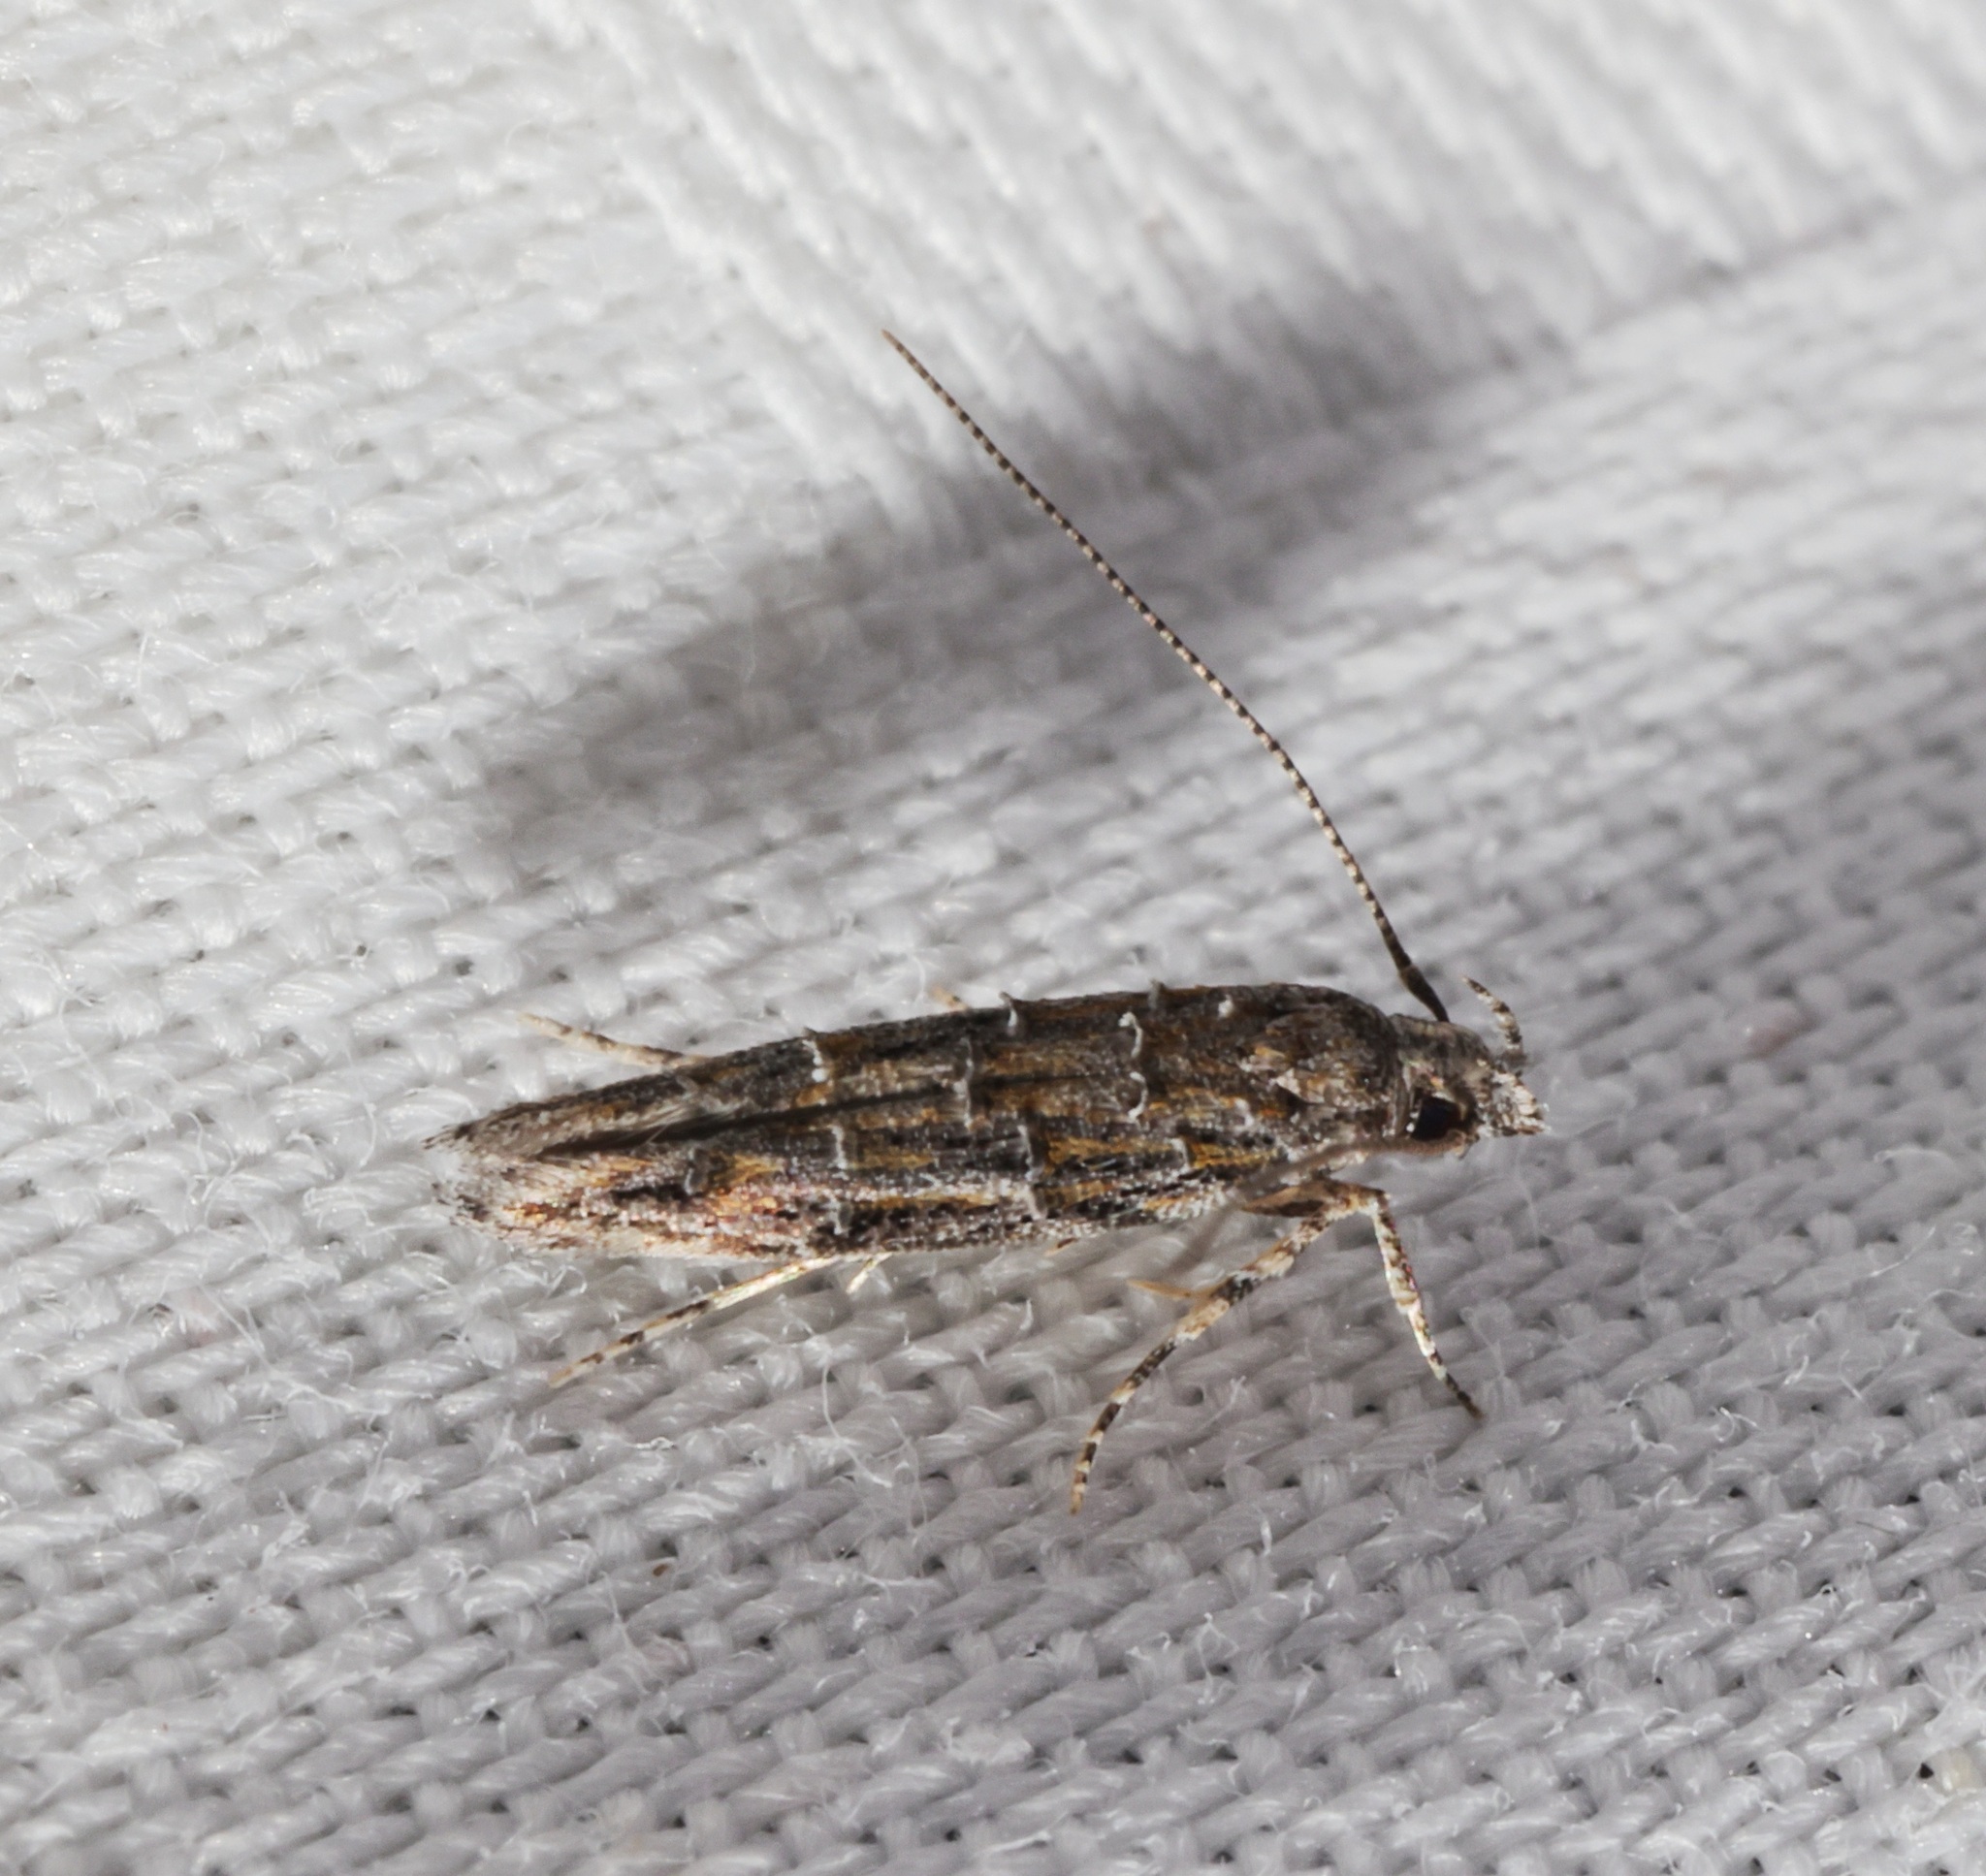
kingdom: Animalia
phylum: Arthropoda
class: Insecta
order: Lepidoptera
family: Yponomeutidae
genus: Metharmostis
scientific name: Metharmostis
